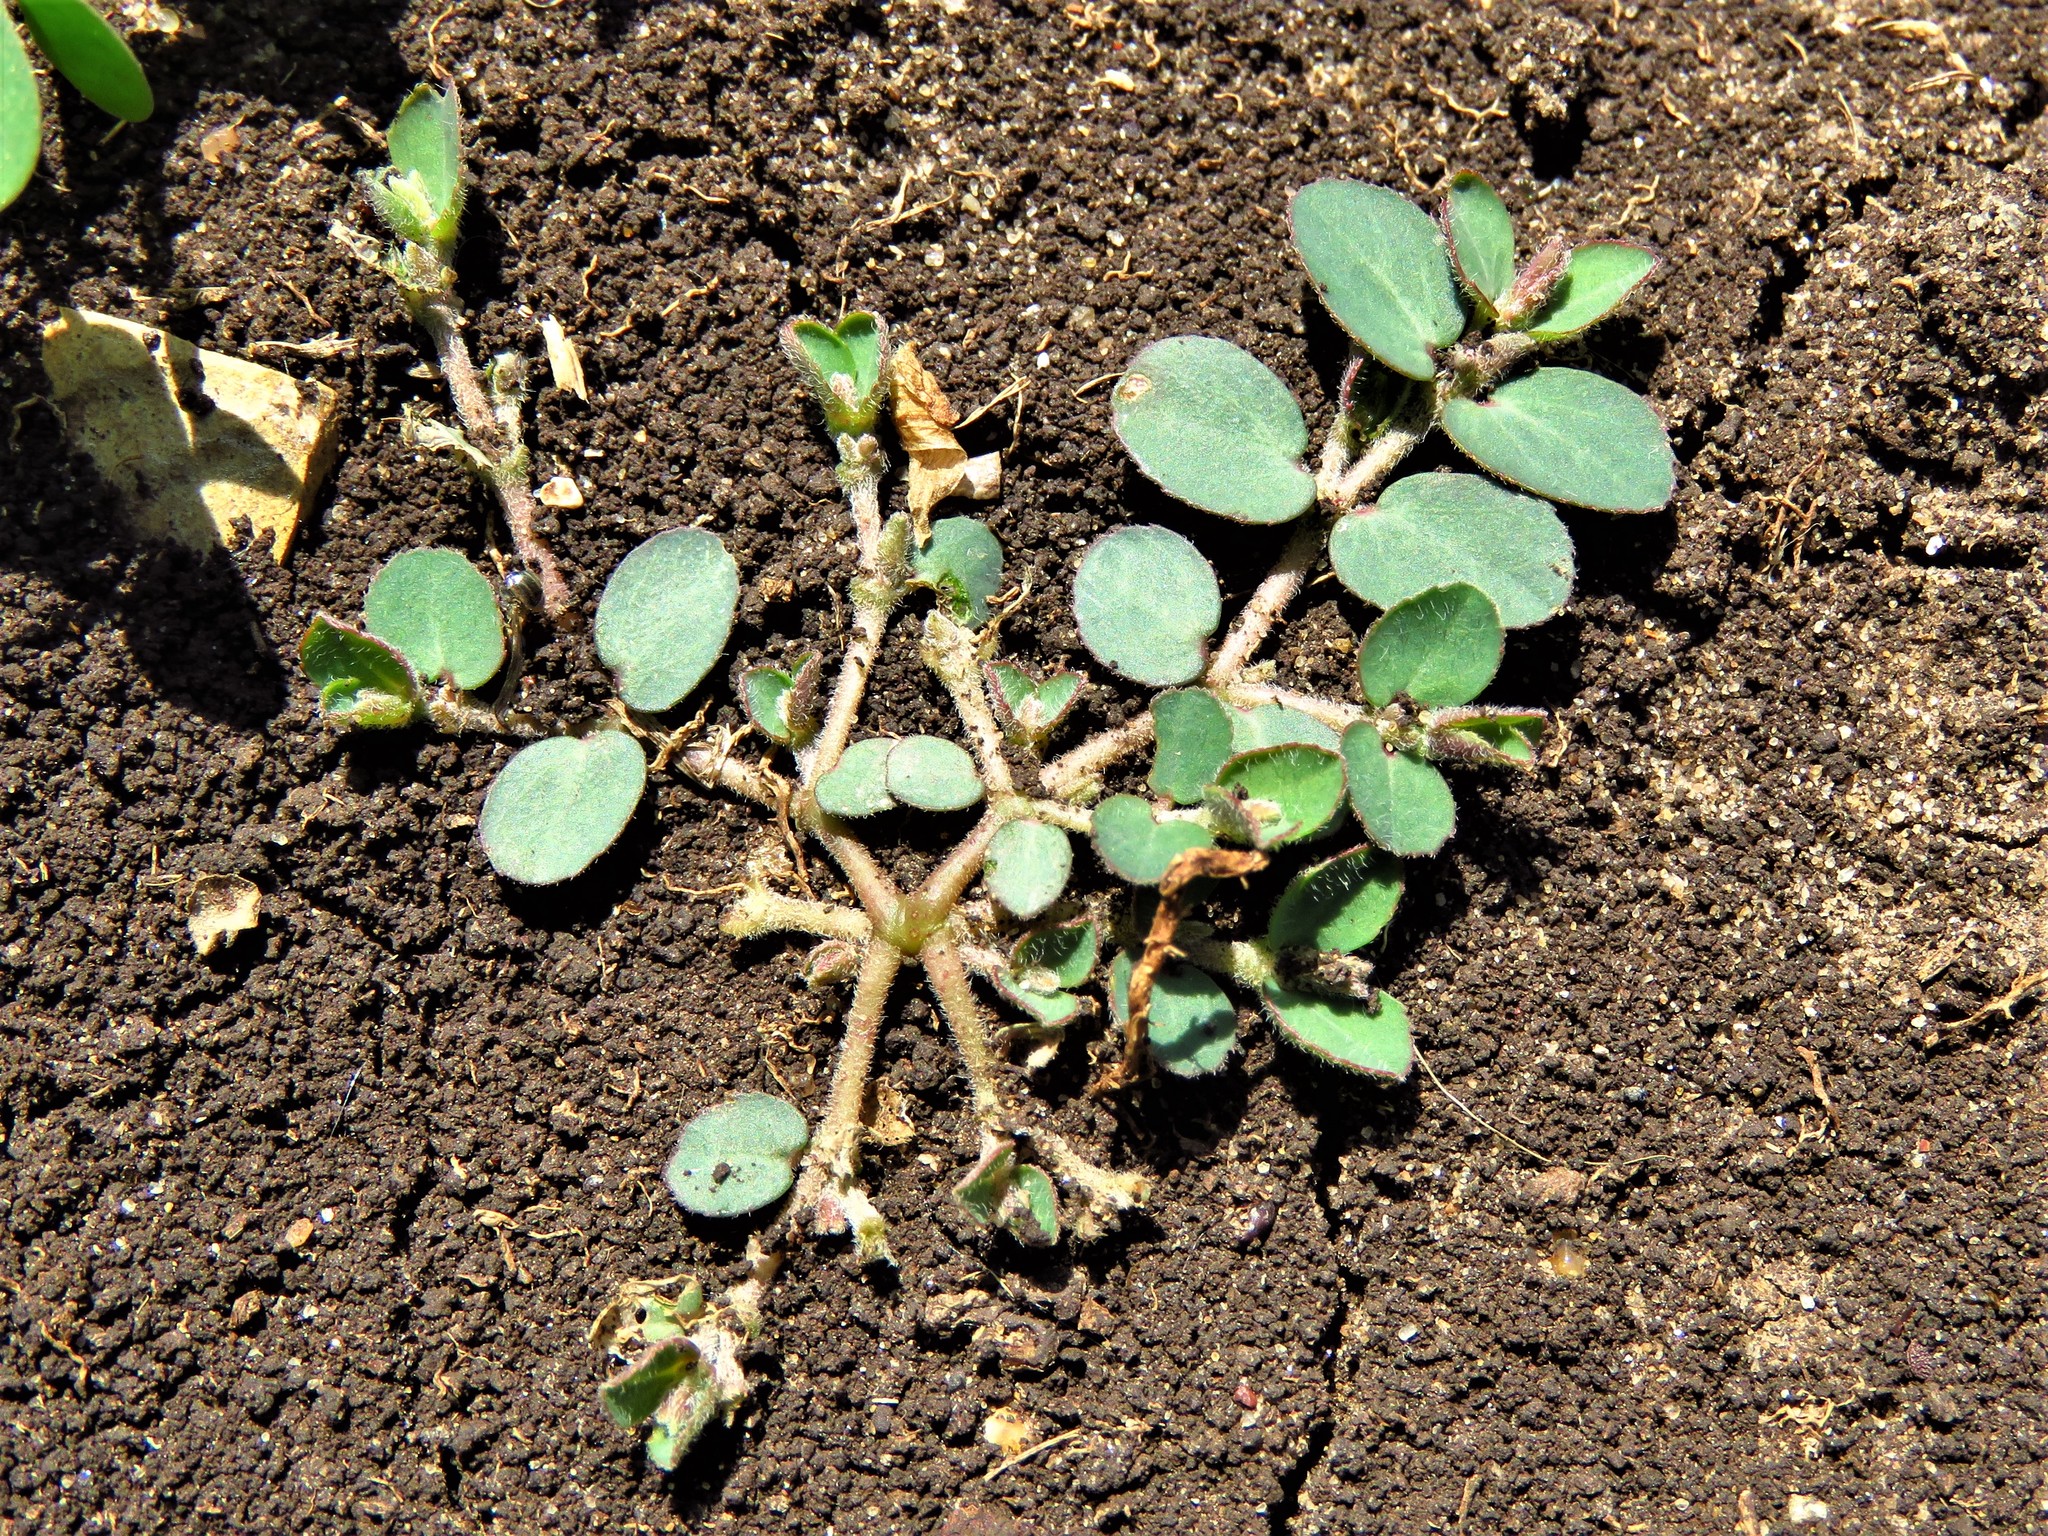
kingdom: Plantae
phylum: Tracheophyta
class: Magnoliopsida
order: Malpighiales
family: Euphorbiaceae
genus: Euphorbia
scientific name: Euphorbia prostrata
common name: Prostrate sandmat
